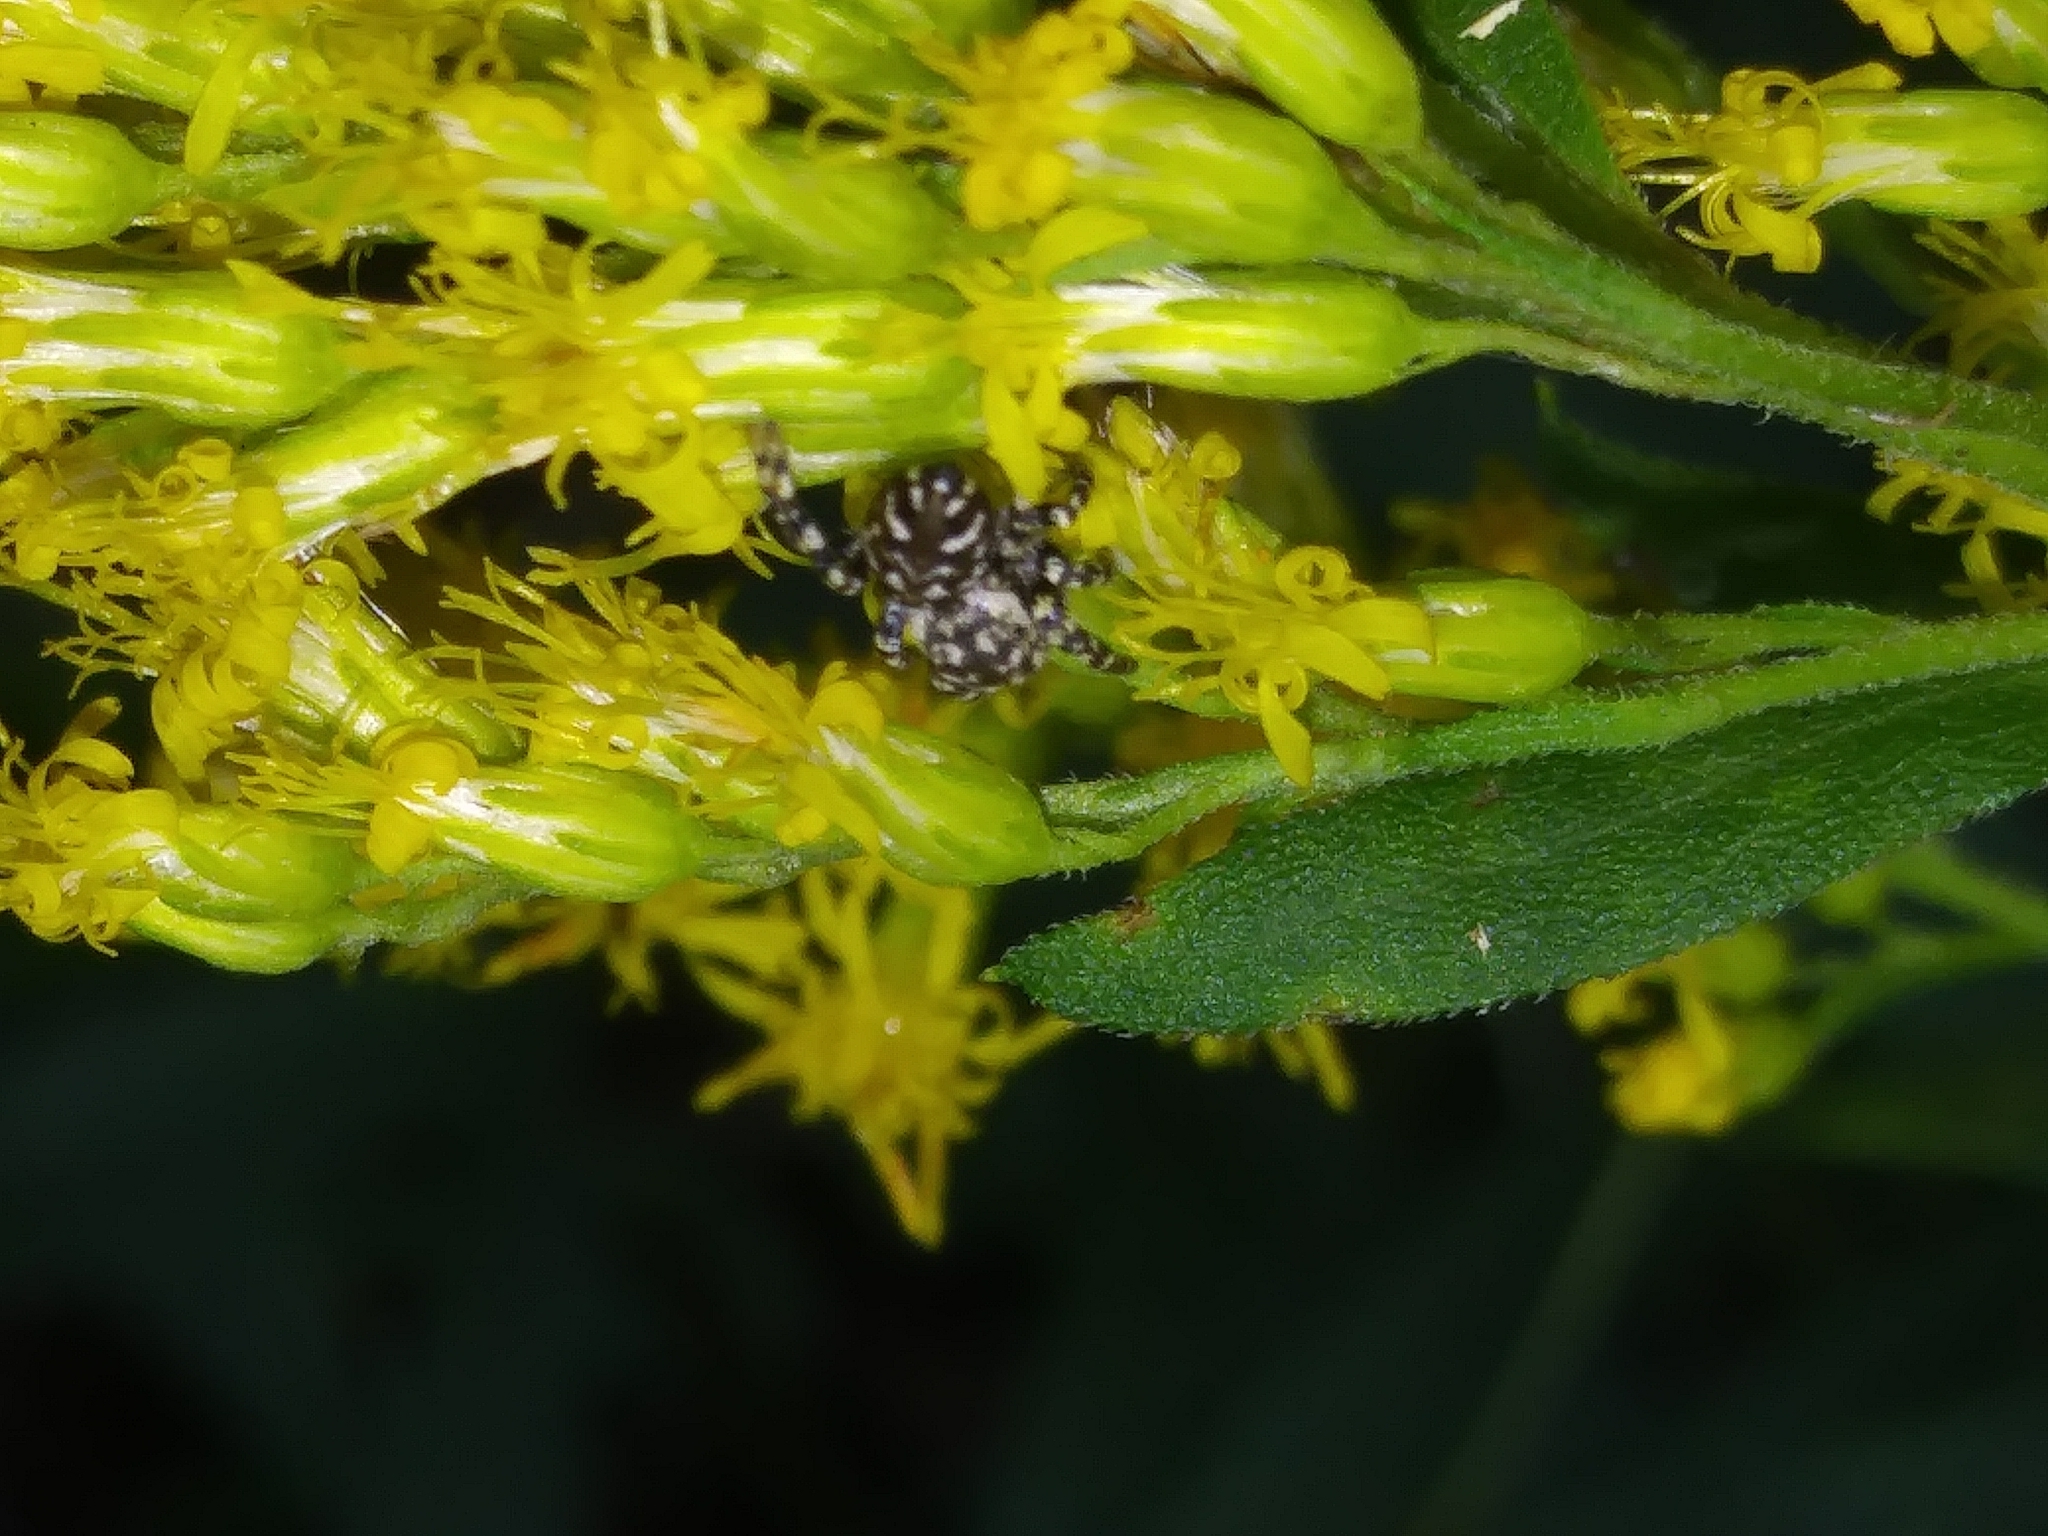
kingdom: Animalia
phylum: Arthropoda
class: Arachnida
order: Araneae
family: Salticidae
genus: Pelegrina
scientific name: Pelegrina galathea
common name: Jumping spiders
